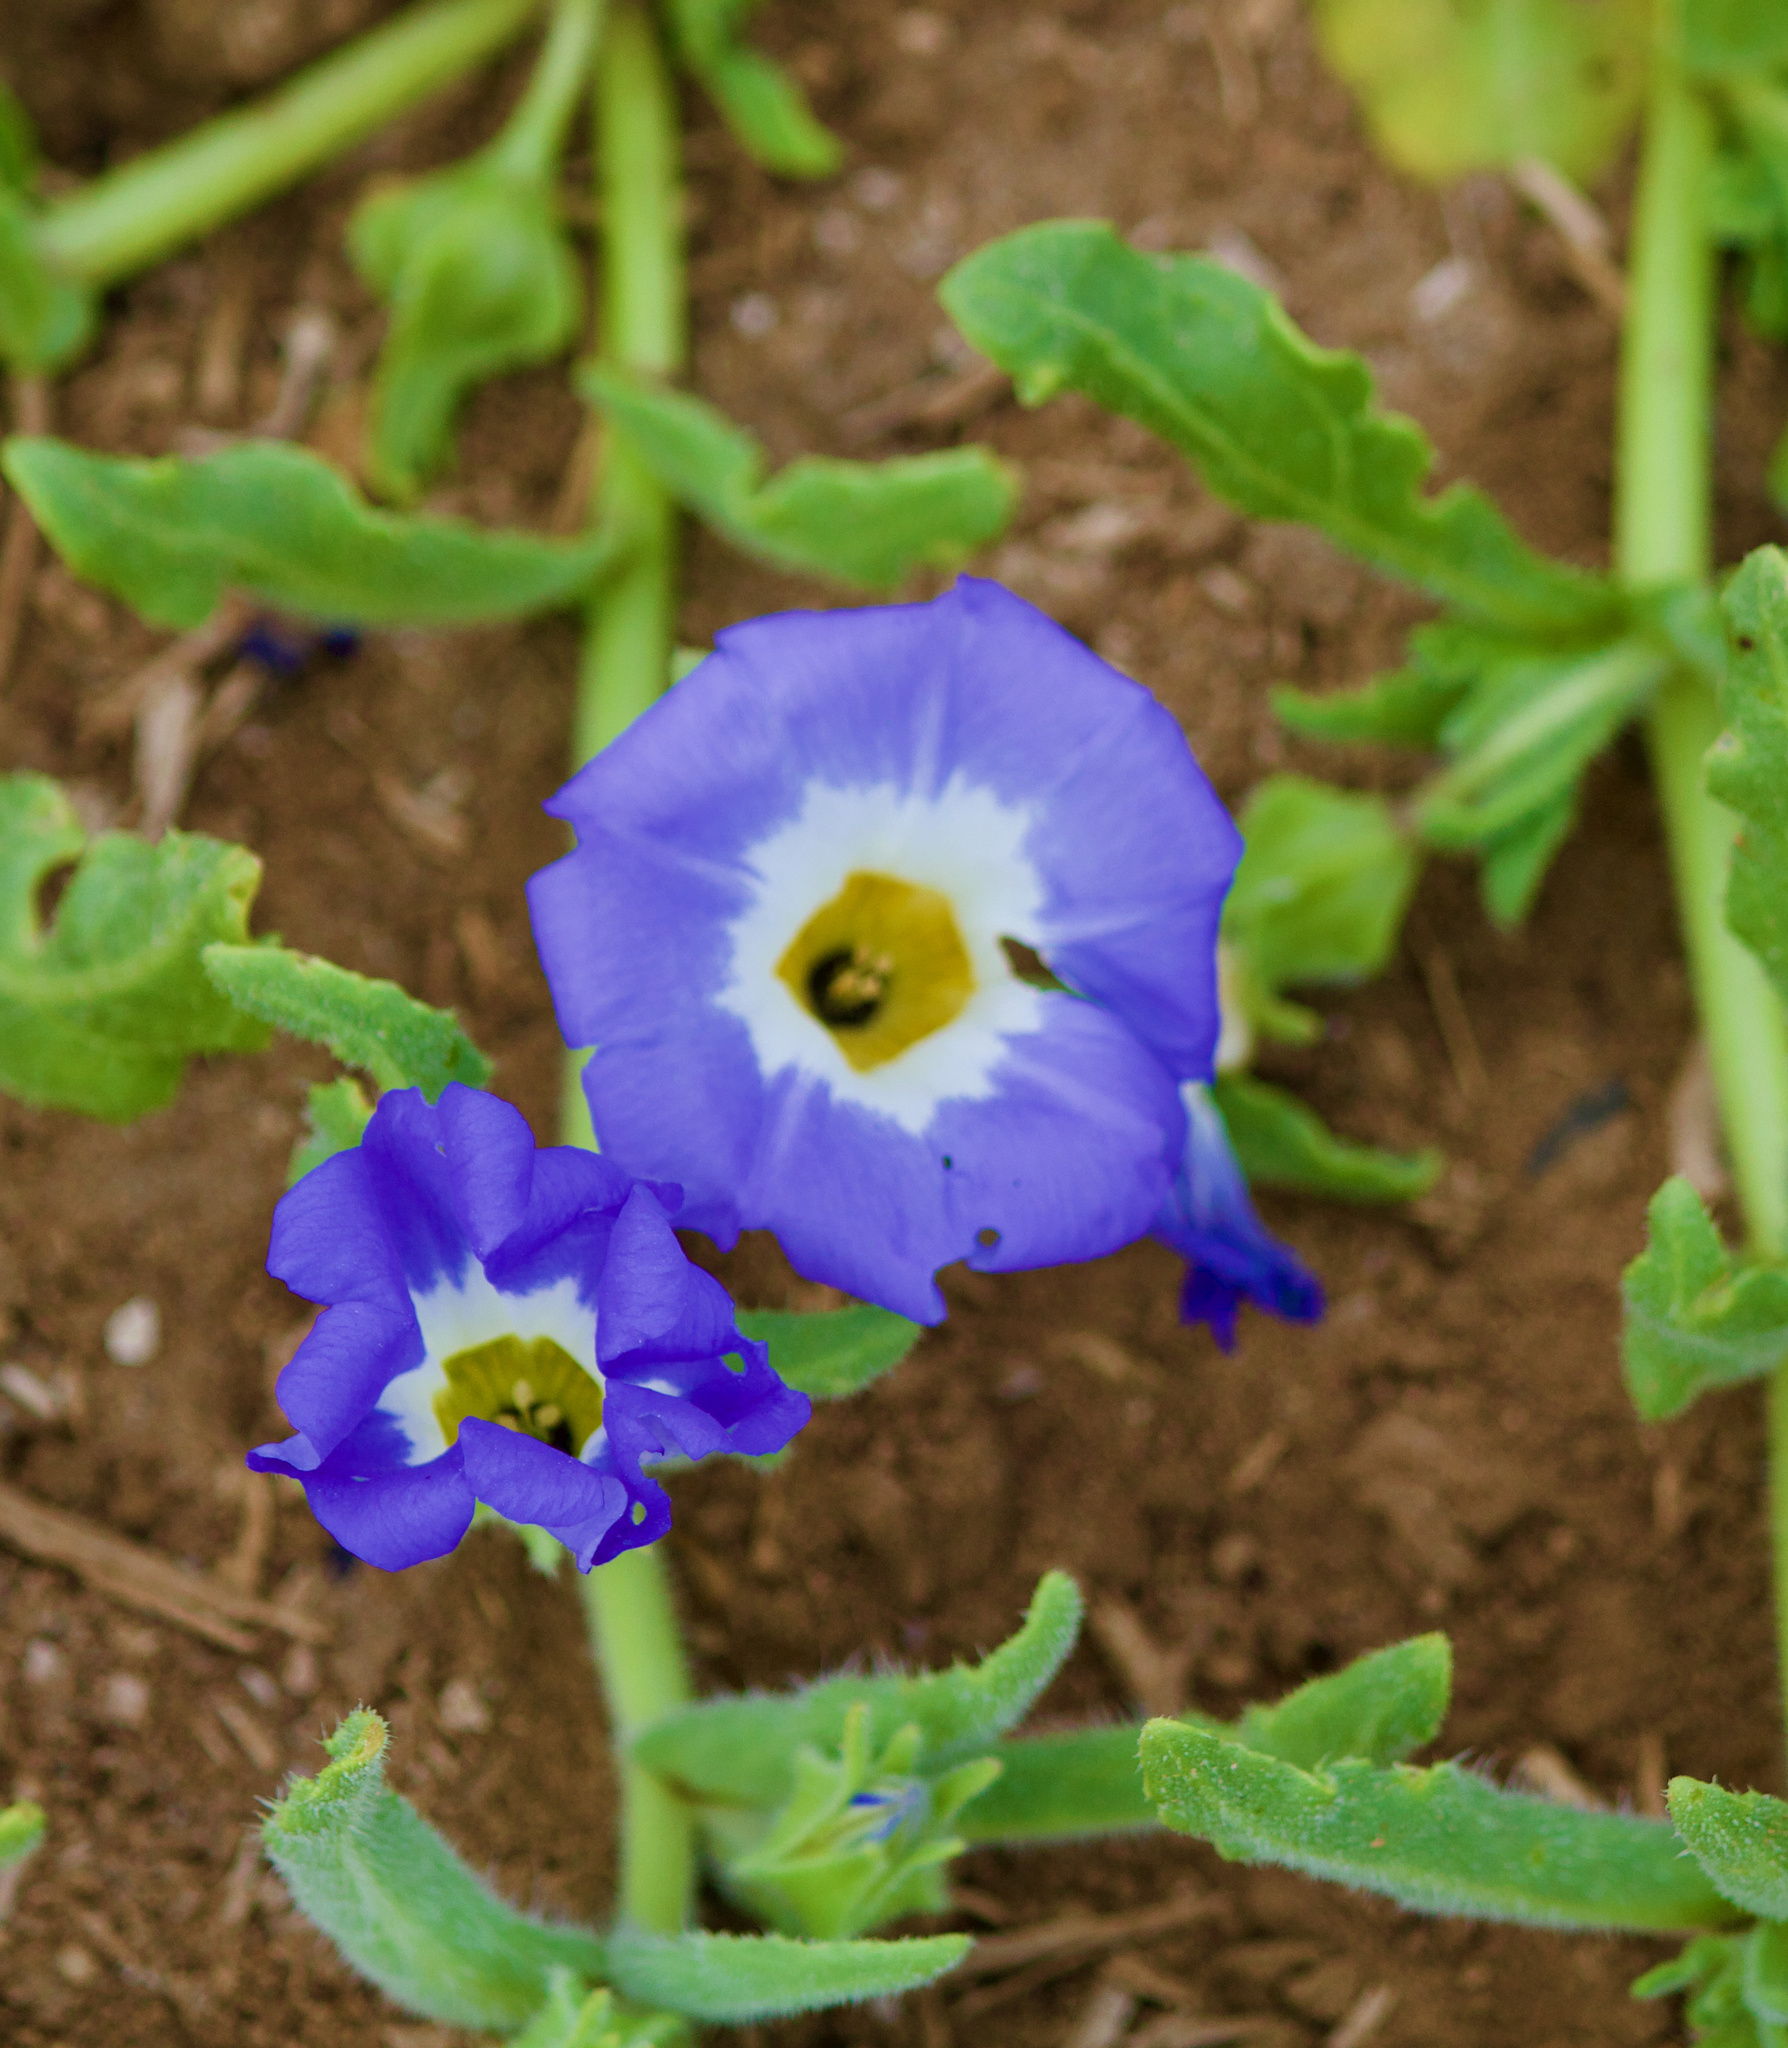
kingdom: Plantae
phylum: Tracheophyta
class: Magnoliopsida
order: Solanales
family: Solanaceae
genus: Nolana
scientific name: Nolana acuminata
